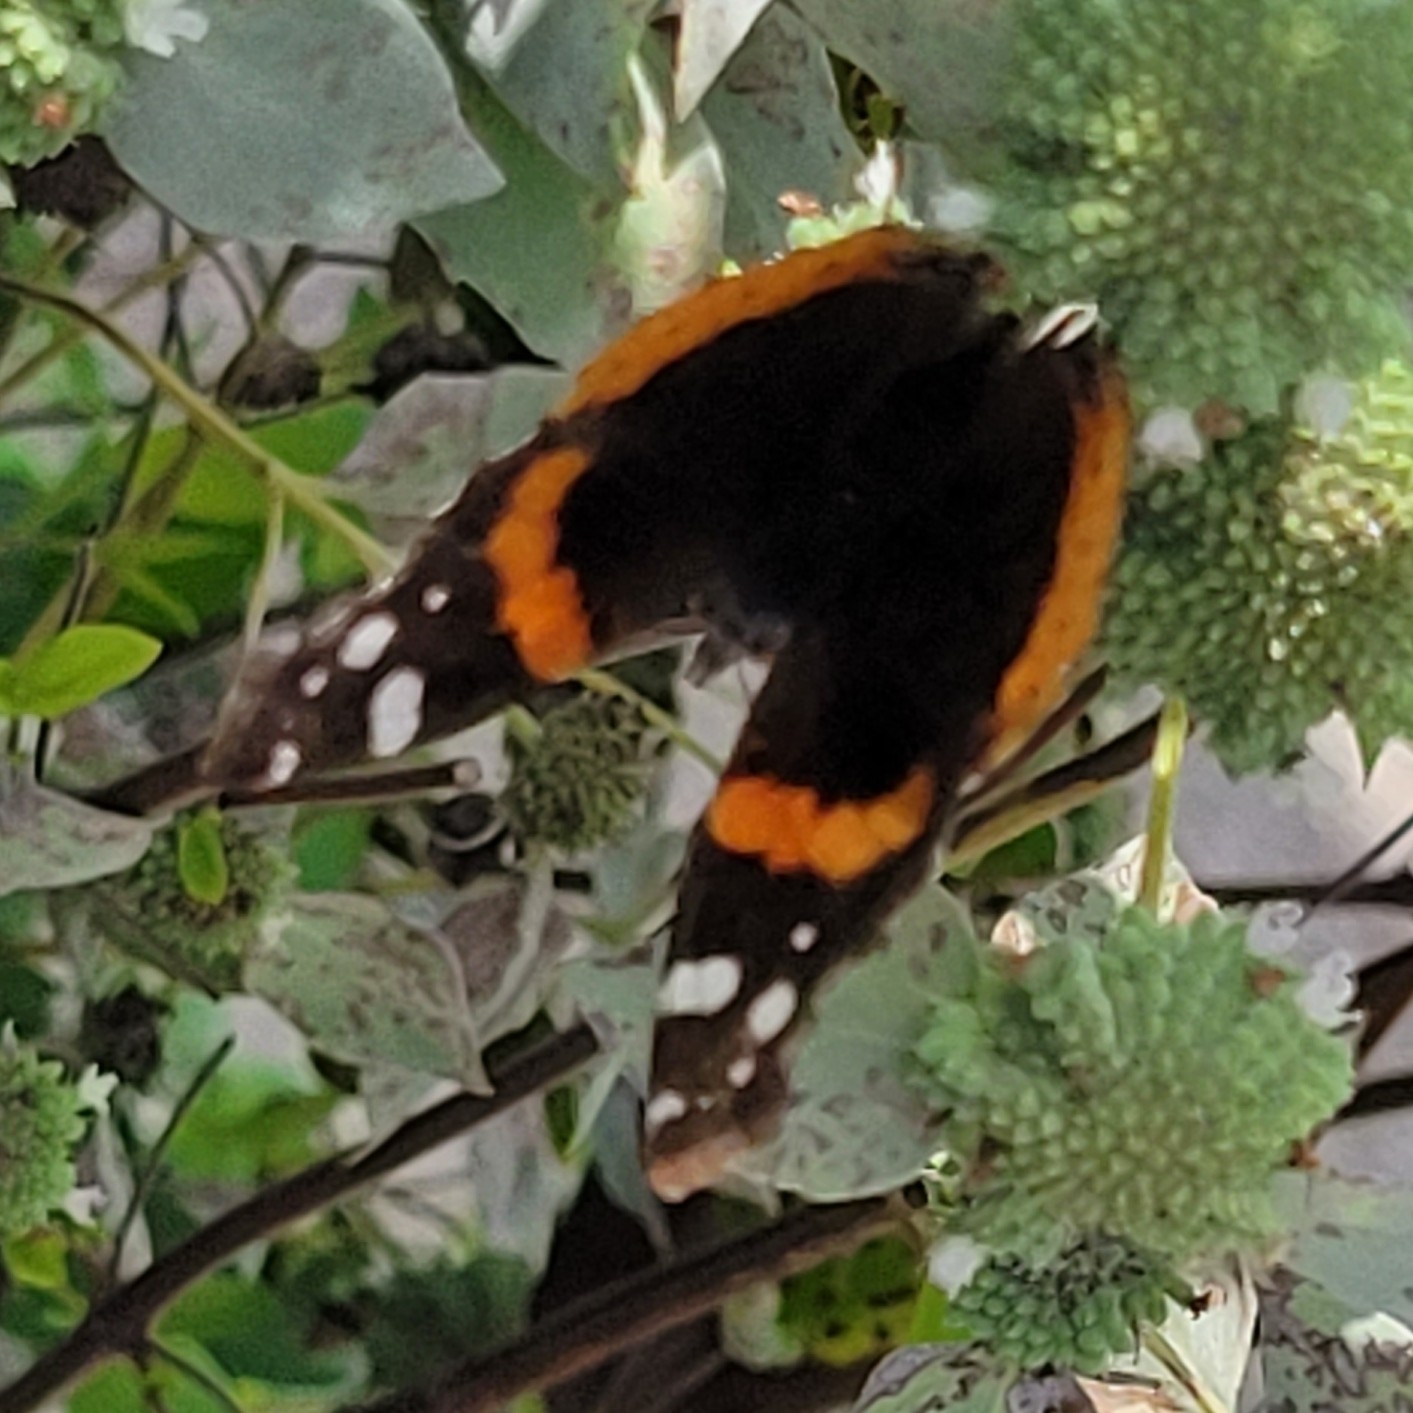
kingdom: Animalia
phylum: Arthropoda
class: Insecta
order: Lepidoptera
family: Nymphalidae
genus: Vanessa
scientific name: Vanessa atalanta
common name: Red admiral
